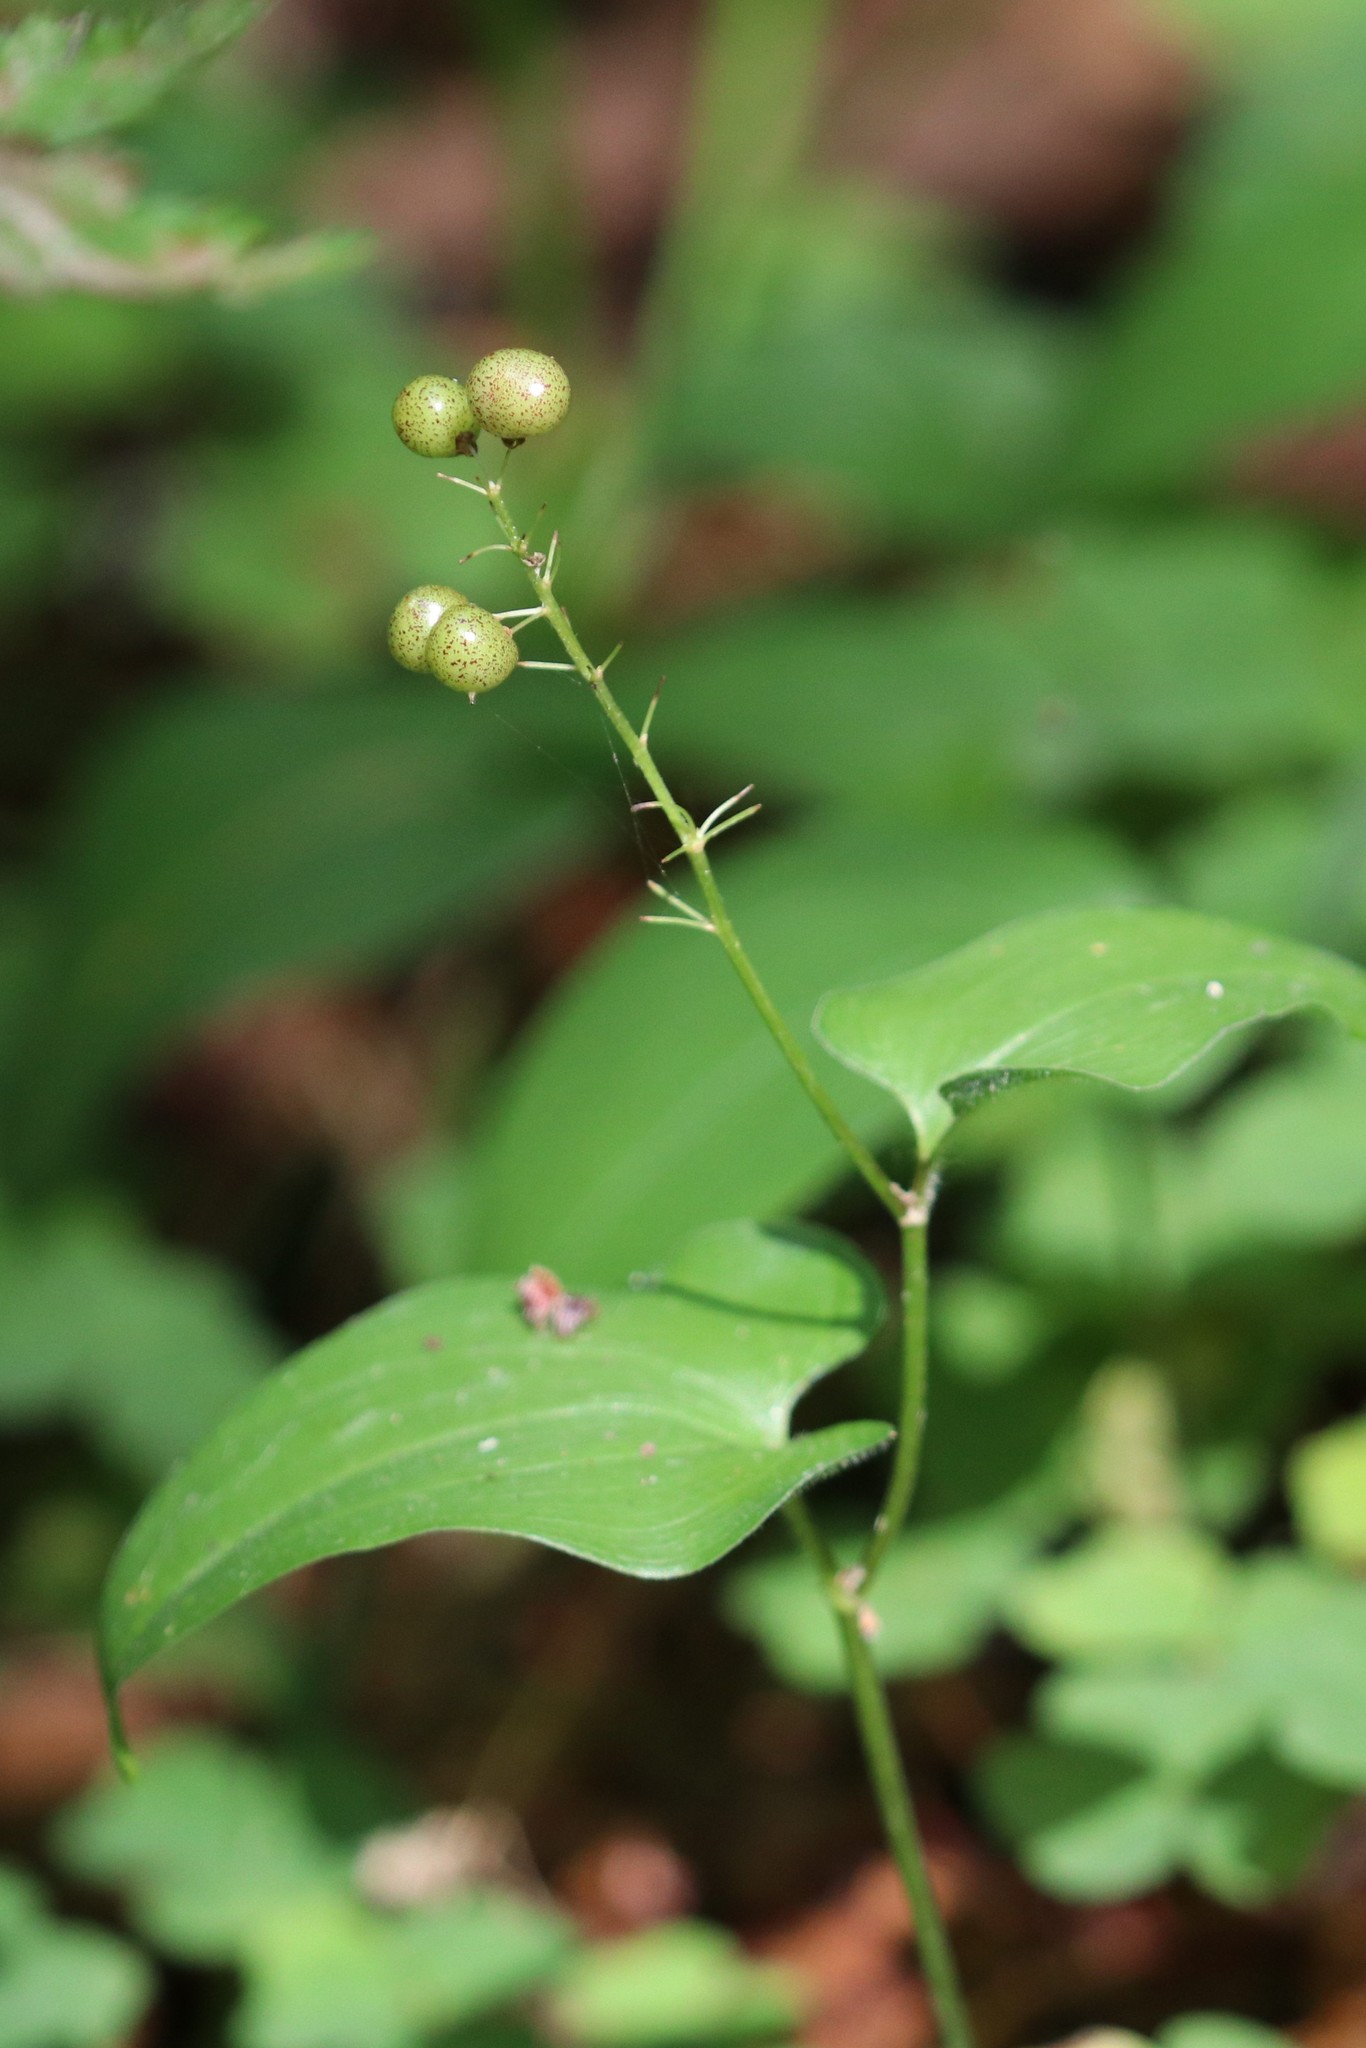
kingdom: Plantae
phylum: Tracheophyta
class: Liliopsida
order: Asparagales
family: Asparagaceae
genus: Maianthemum
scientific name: Maianthemum bifolium
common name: May lily
